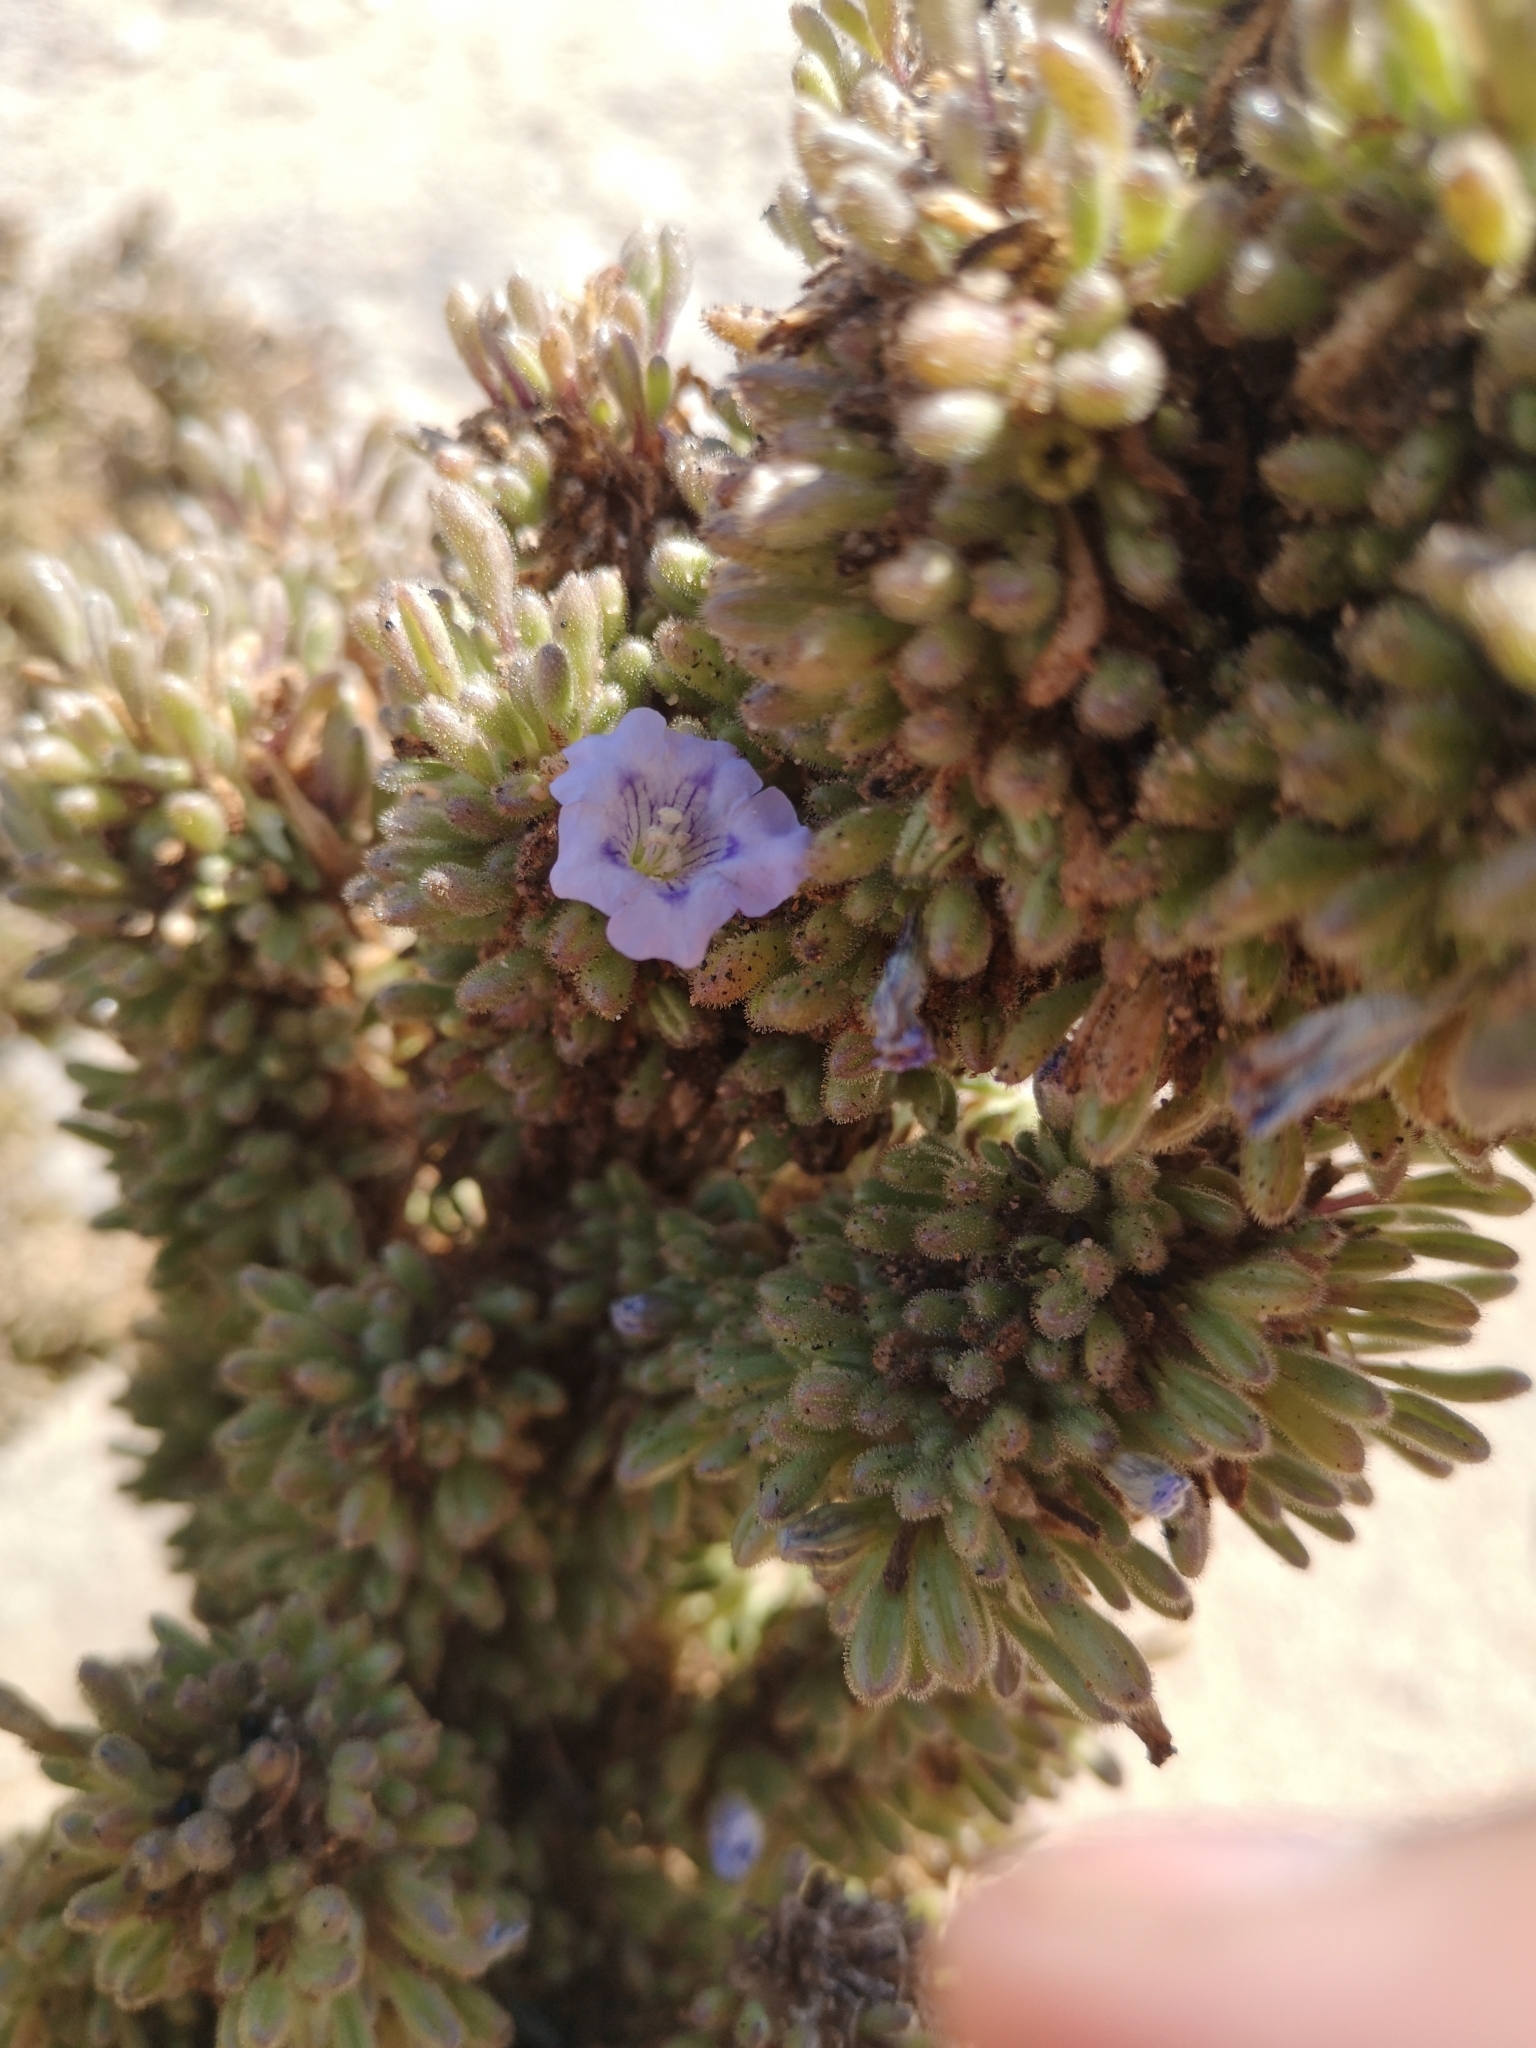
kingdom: Plantae
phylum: Tracheophyta
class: Magnoliopsida
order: Solanales
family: Solanaceae
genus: Nolana
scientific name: Nolana onoana
